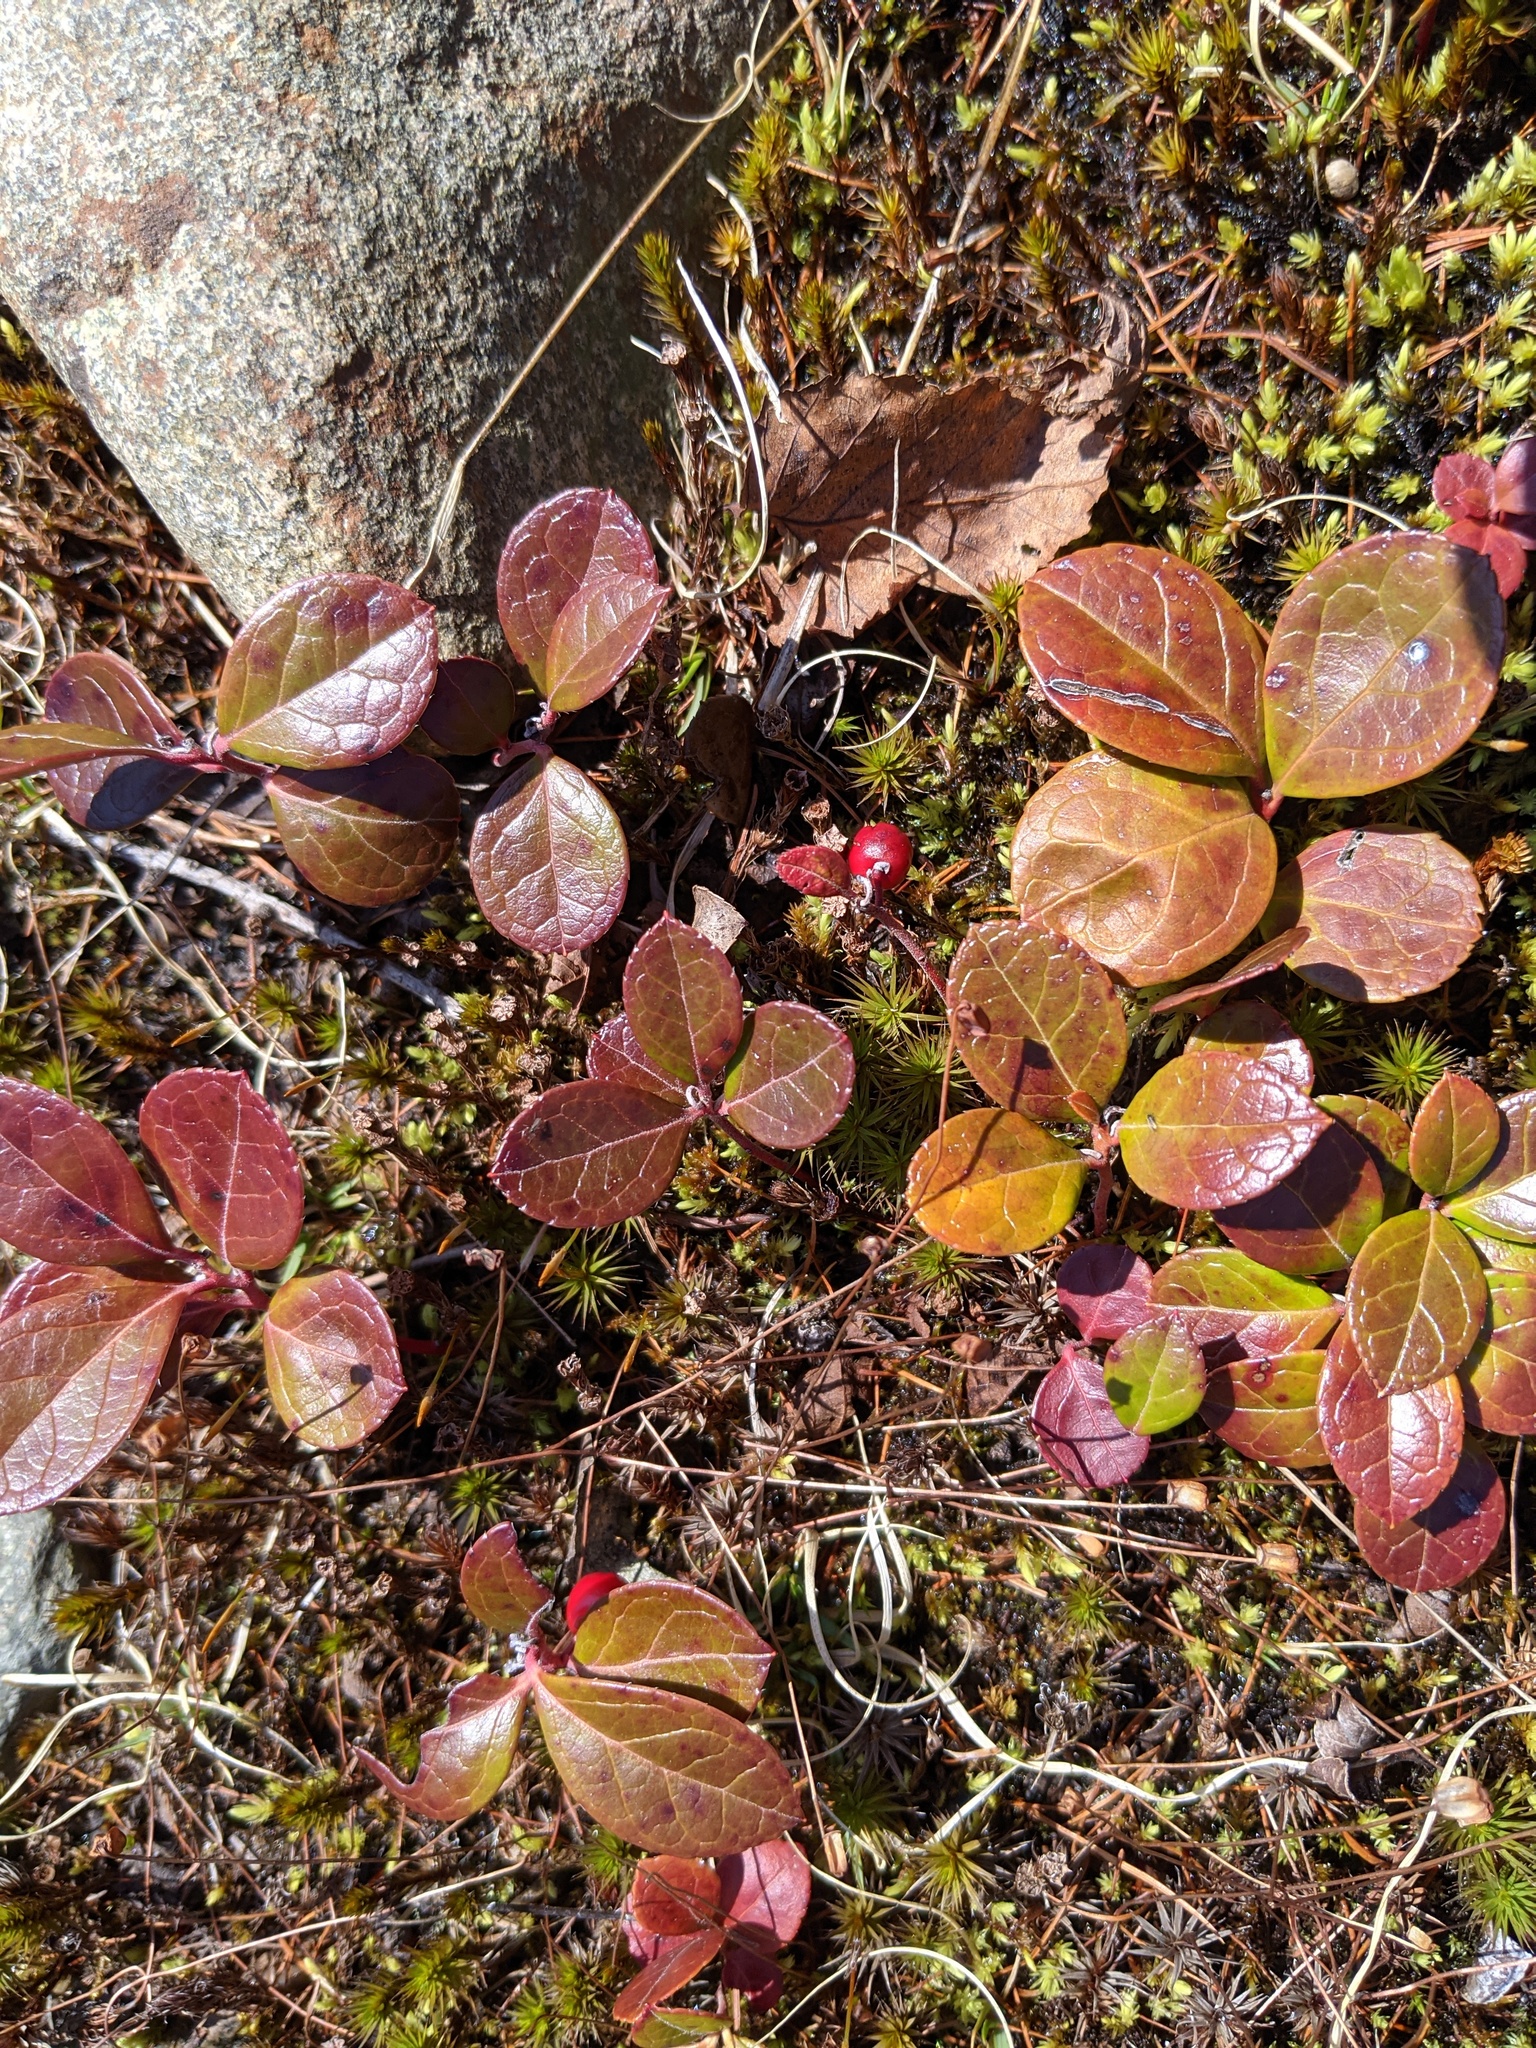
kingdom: Plantae
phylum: Tracheophyta
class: Magnoliopsida
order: Ericales
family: Ericaceae
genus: Gaultheria
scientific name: Gaultheria procumbens
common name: Checkerberry
